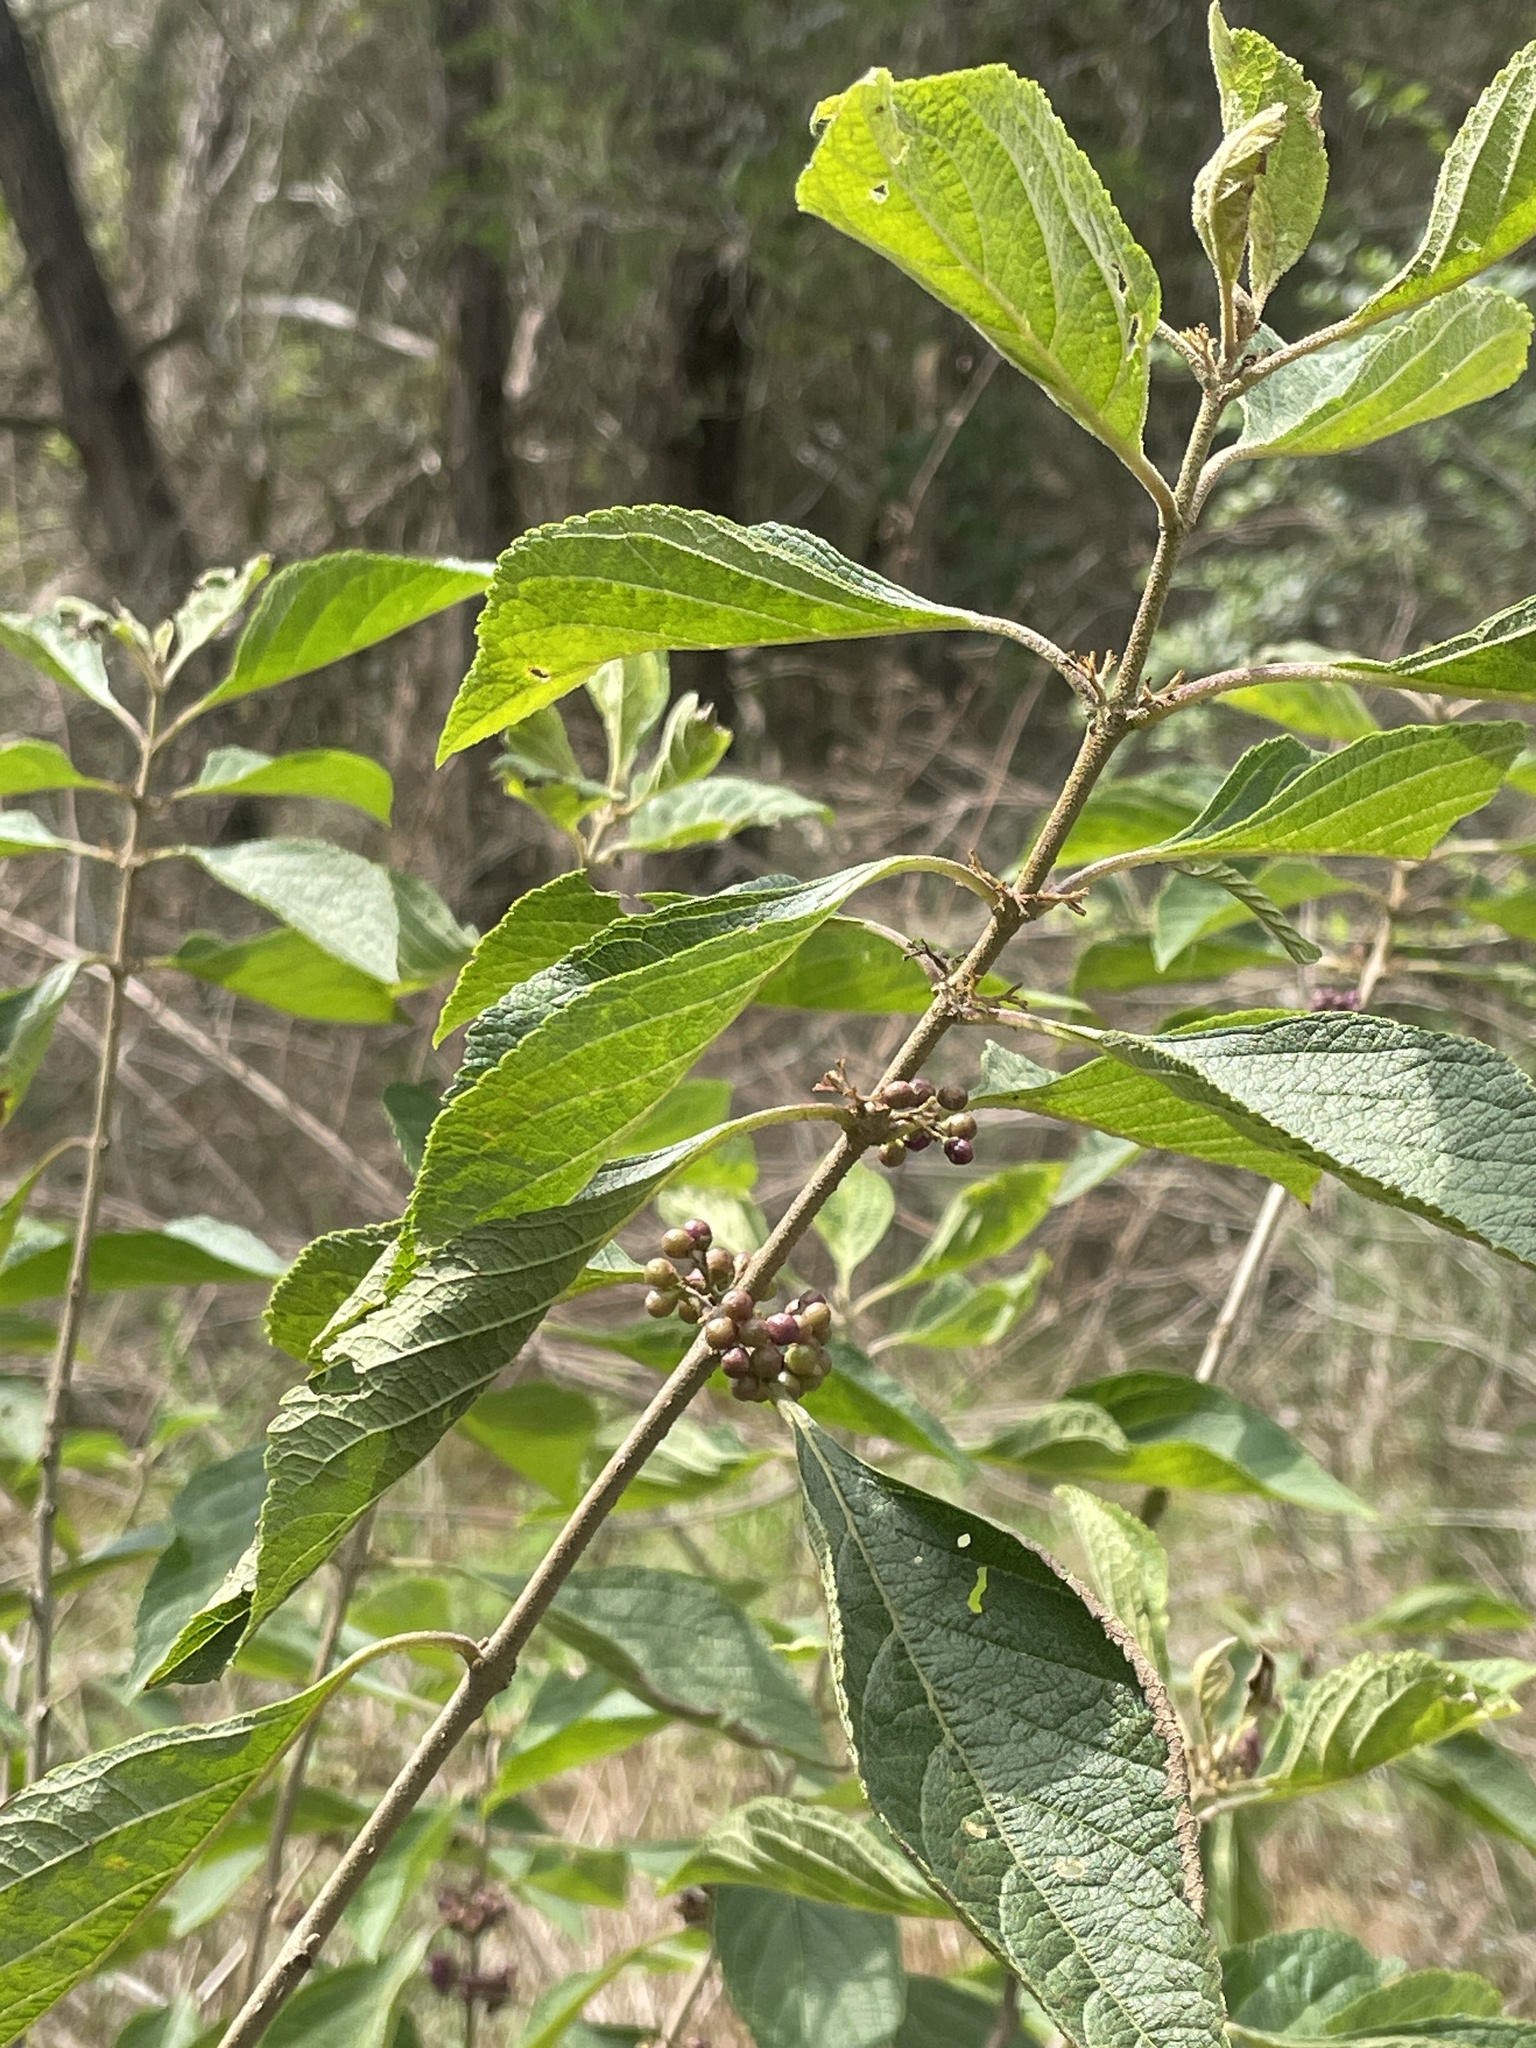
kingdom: Plantae
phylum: Tracheophyta
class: Magnoliopsida
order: Lamiales
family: Lamiaceae
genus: Callicarpa
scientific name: Callicarpa americana
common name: American beautyberry
